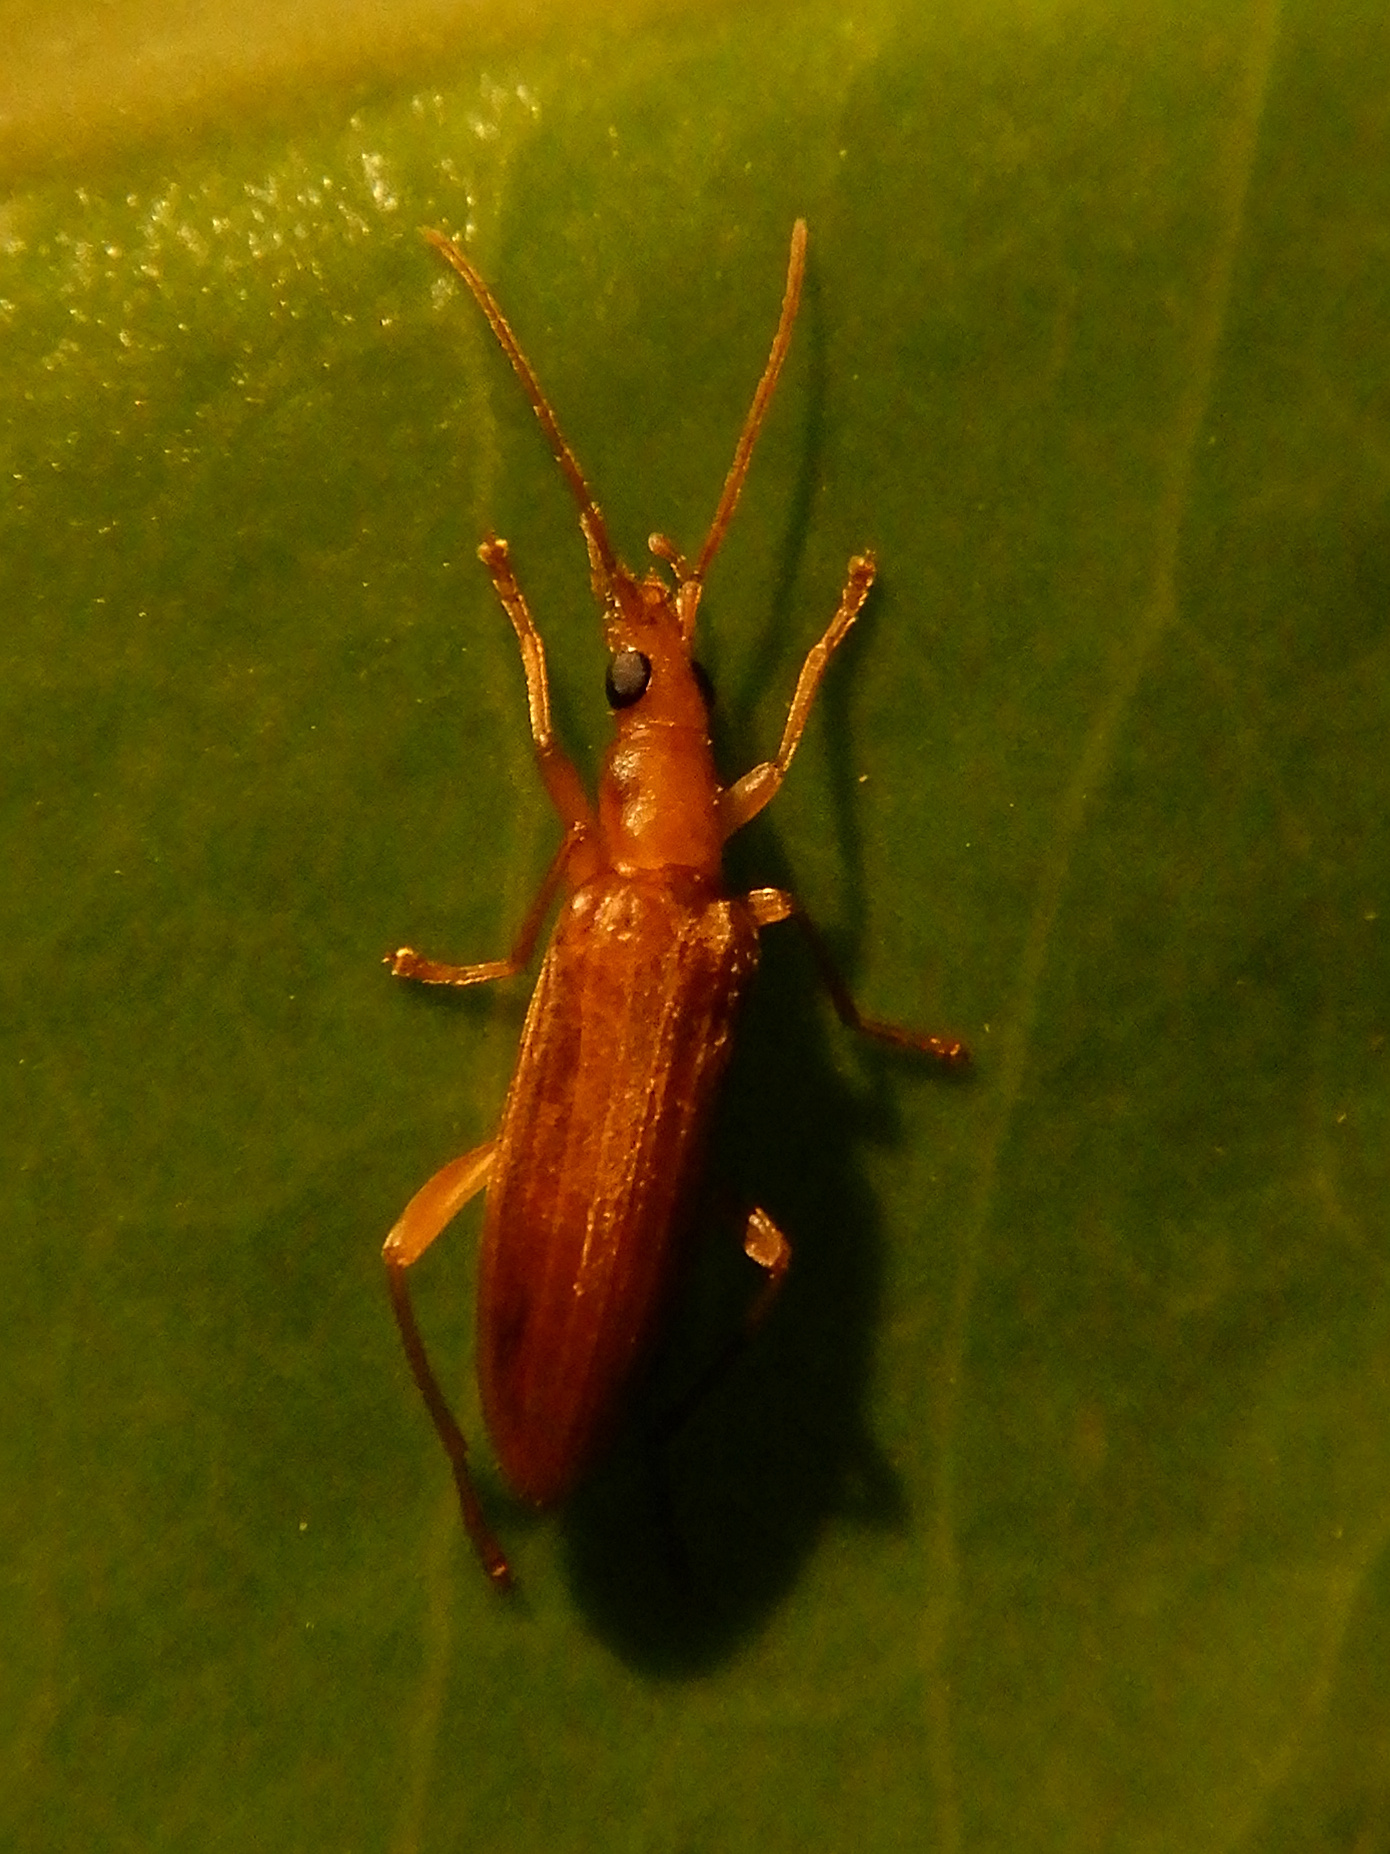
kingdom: Animalia
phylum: Arthropoda
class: Insecta
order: Coleoptera
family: Oedemeridae
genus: Sessinia
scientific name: Sessinia livida
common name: False blister beetle
